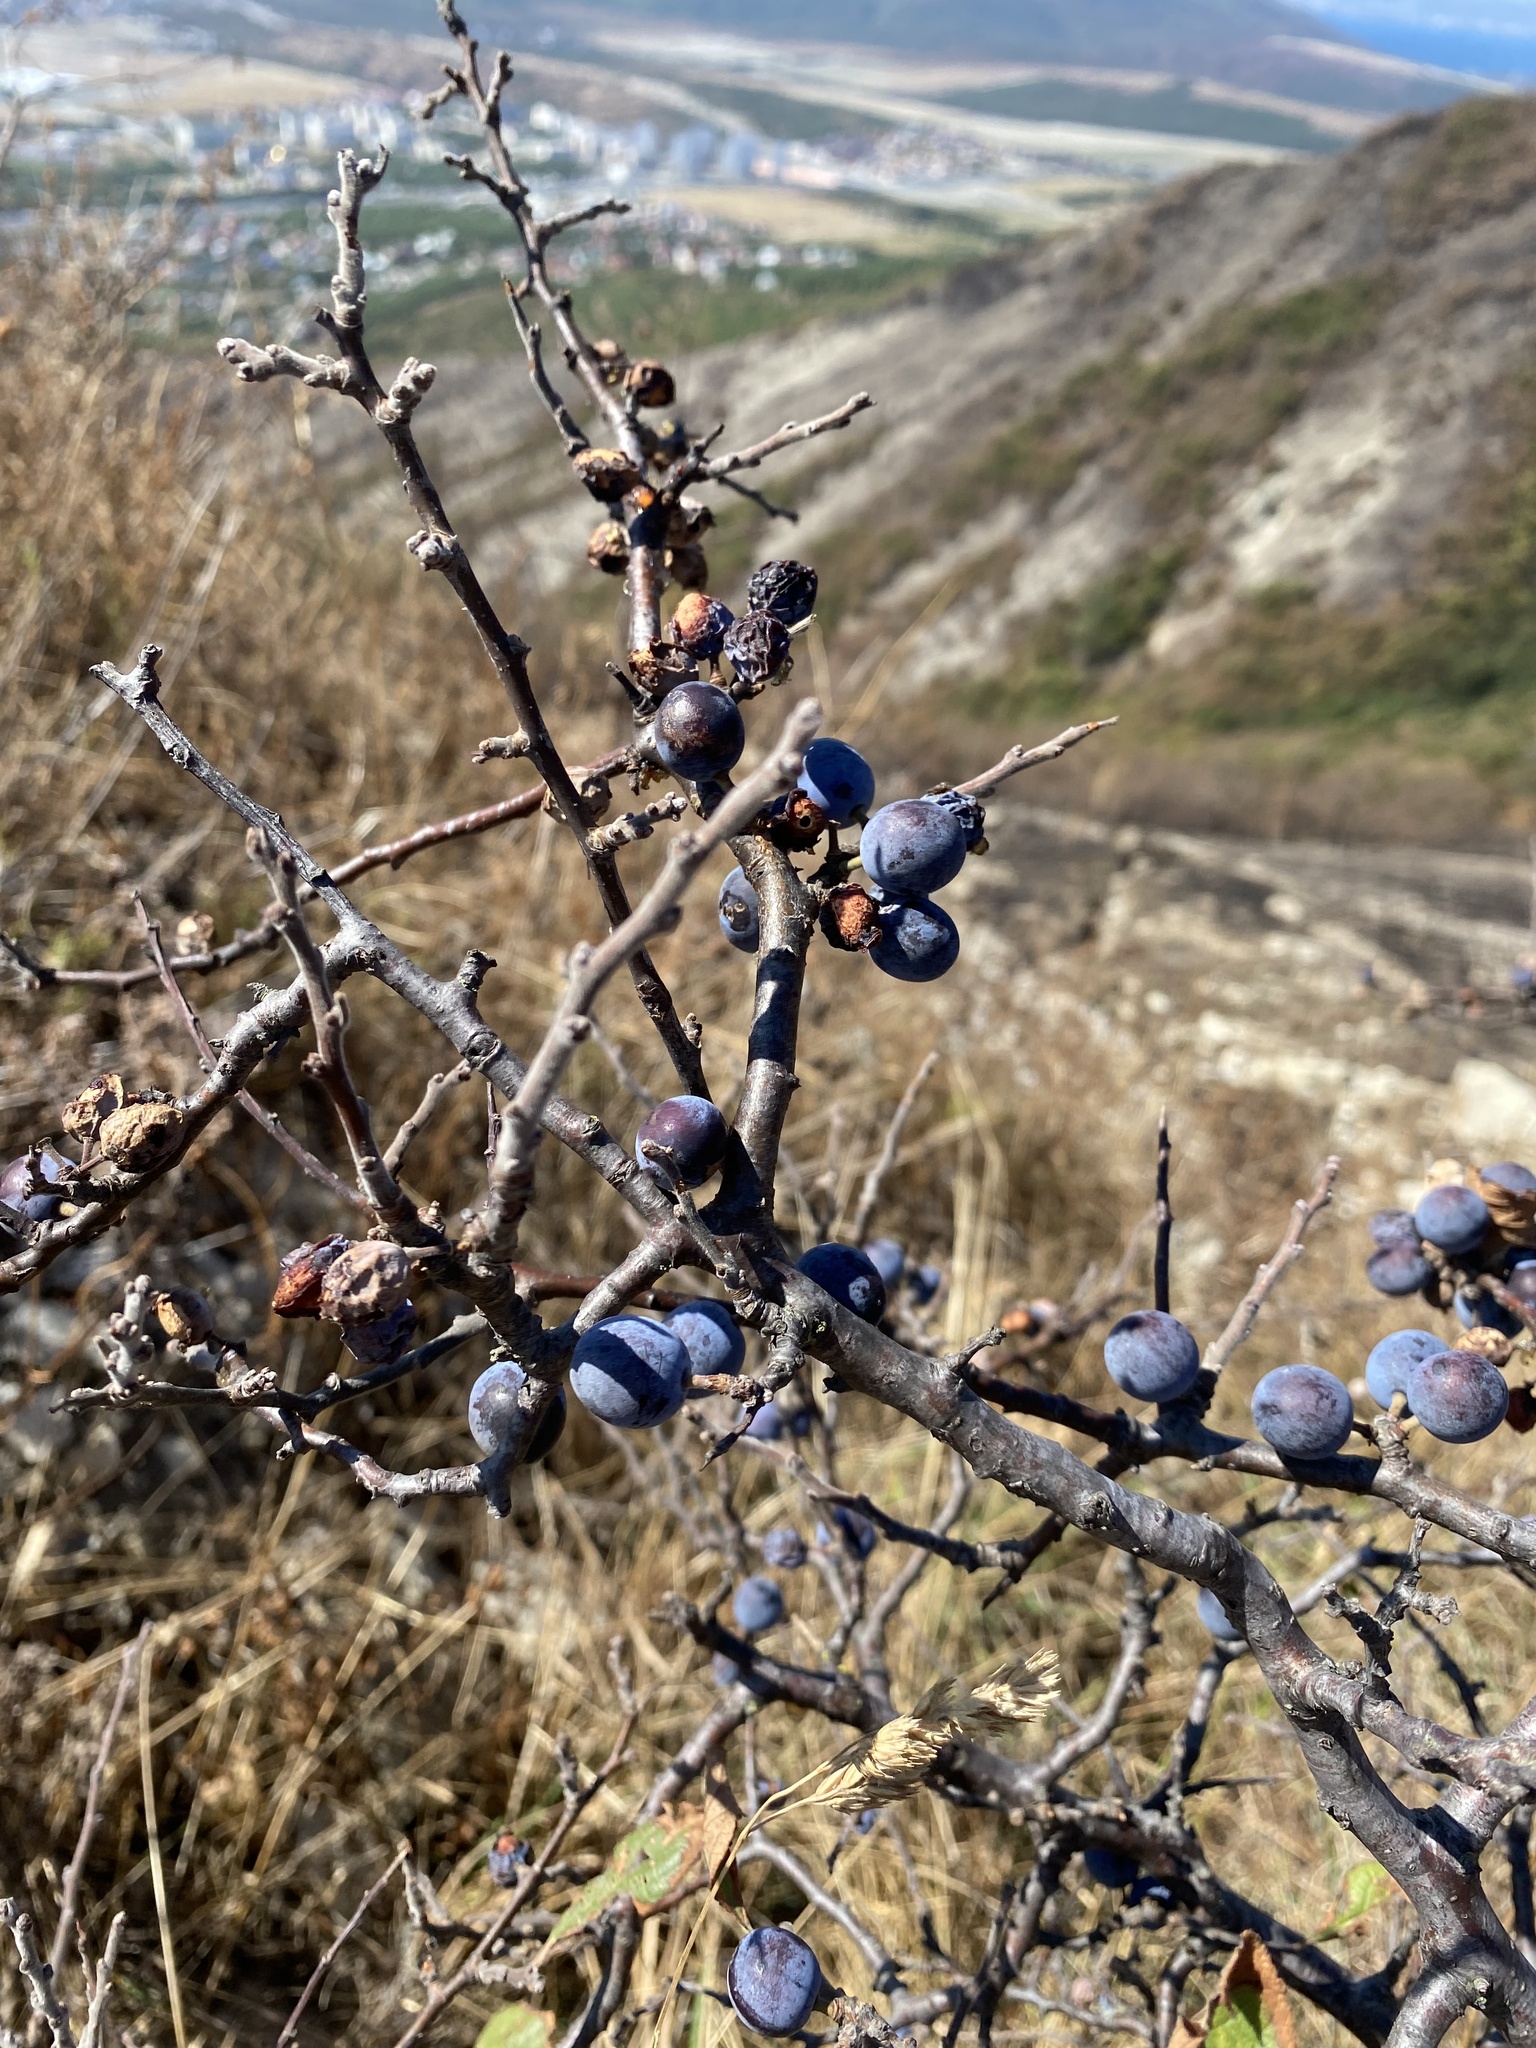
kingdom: Plantae
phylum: Tracheophyta
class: Magnoliopsida
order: Rosales
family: Rosaceae
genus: Prunus
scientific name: Prunus spinosa
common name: Blackthorn
